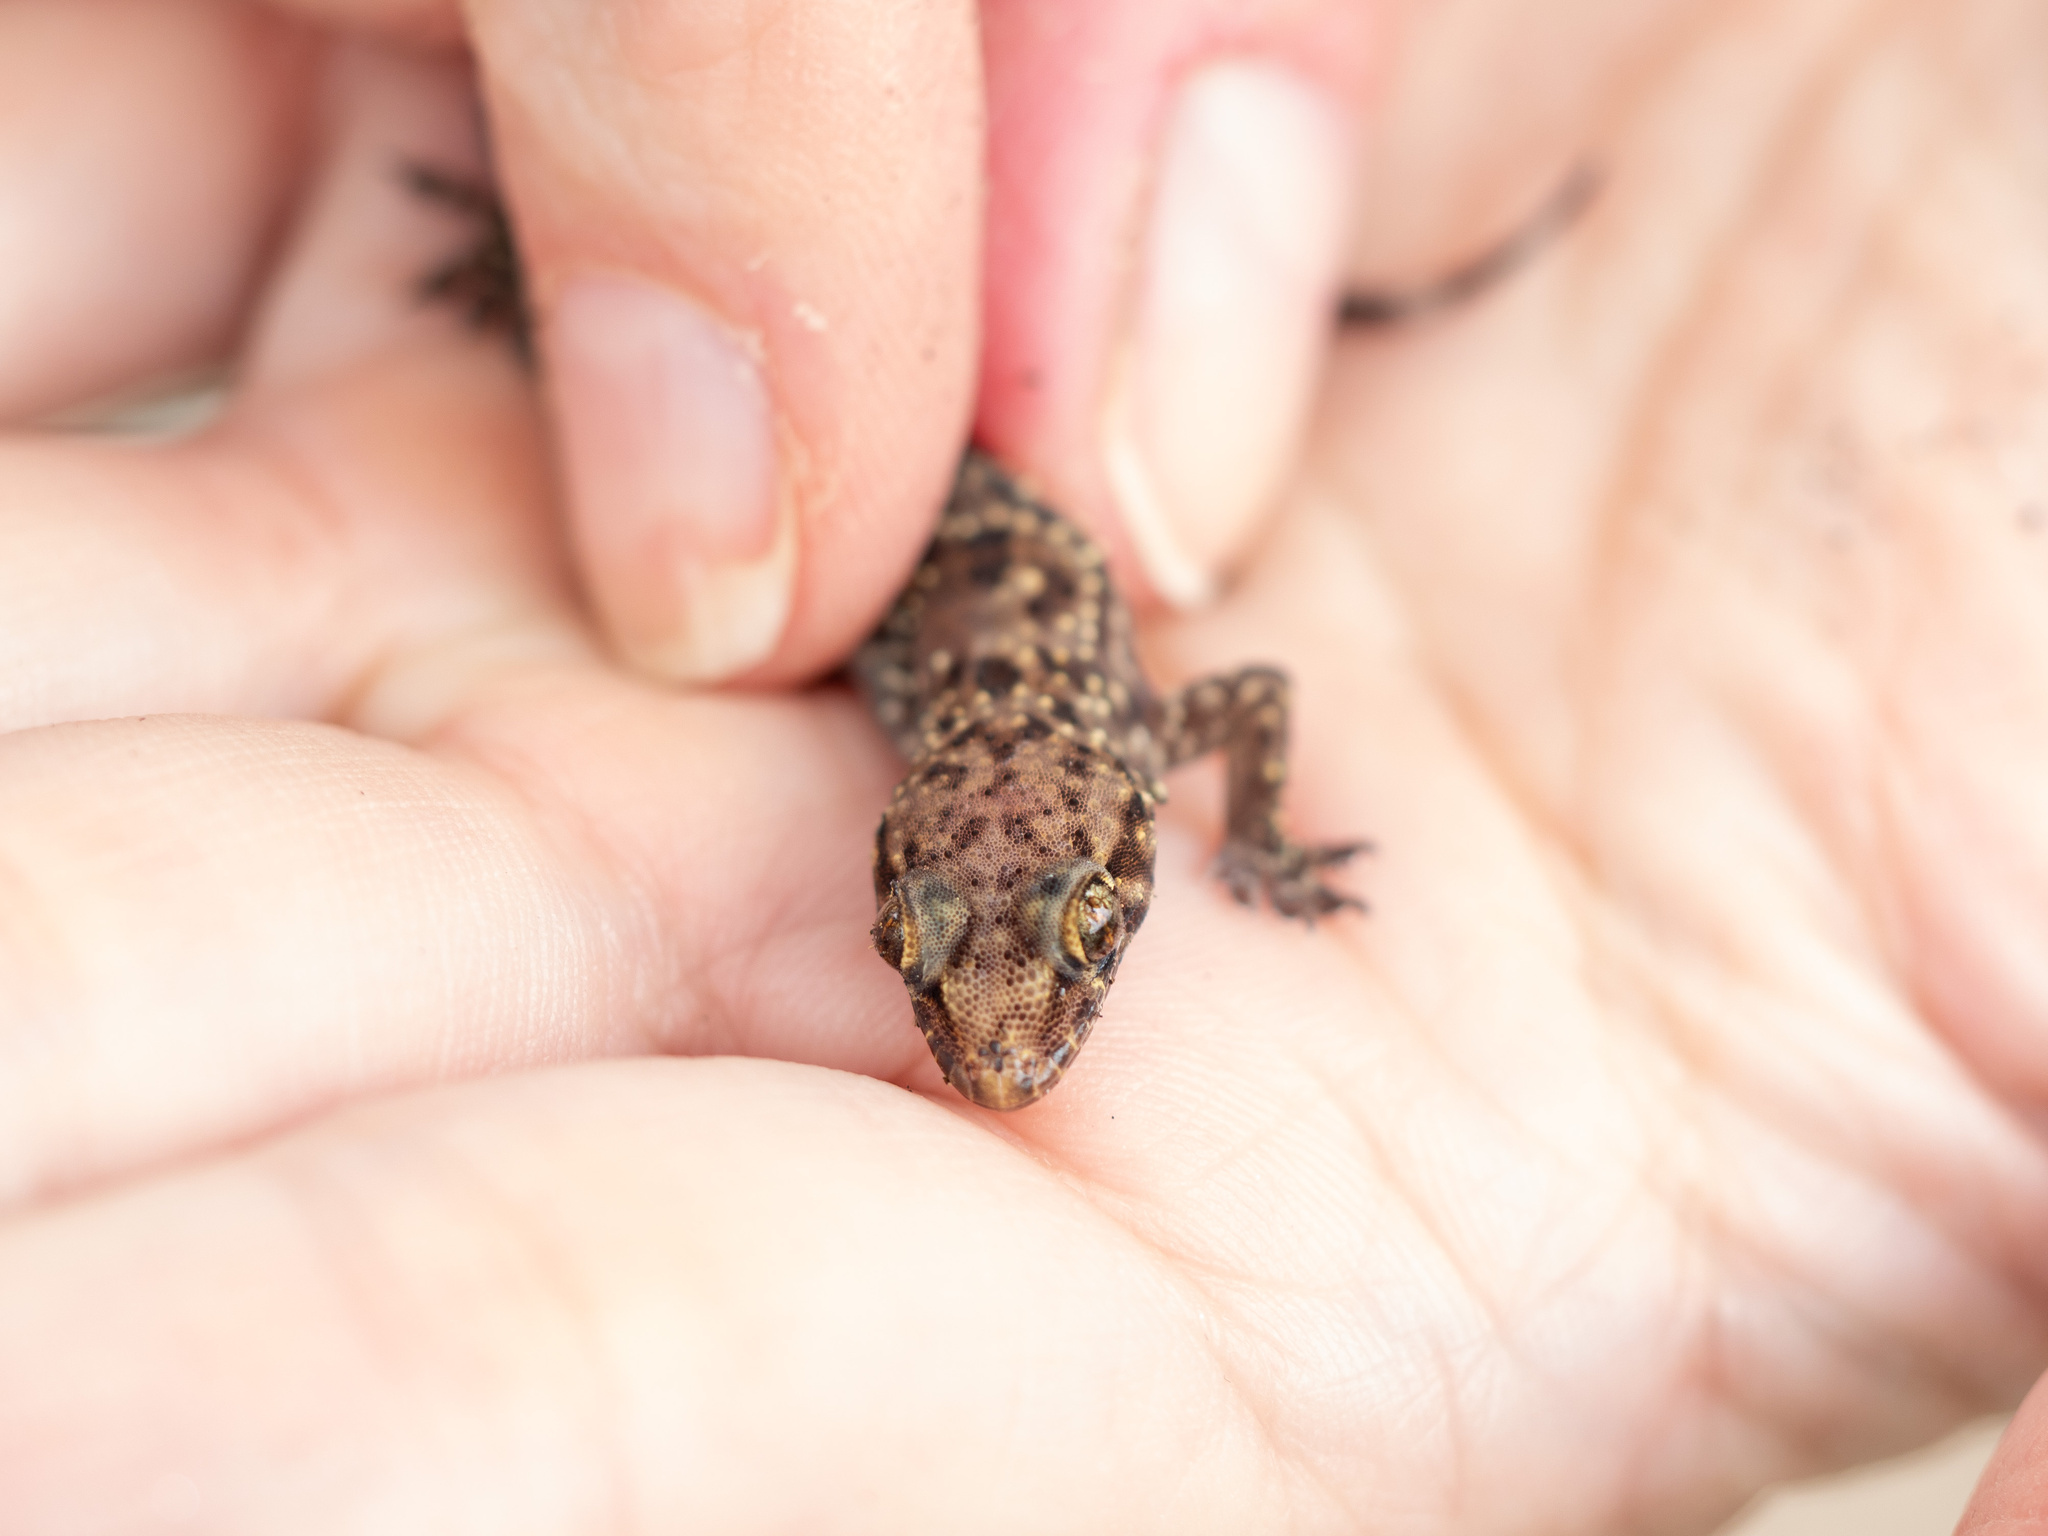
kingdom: Animalia
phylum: Chordata
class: Squamata
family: Gekkonidae
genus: Hemidactylus
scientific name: Hemidactylus turcicus
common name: Turkish gecko
